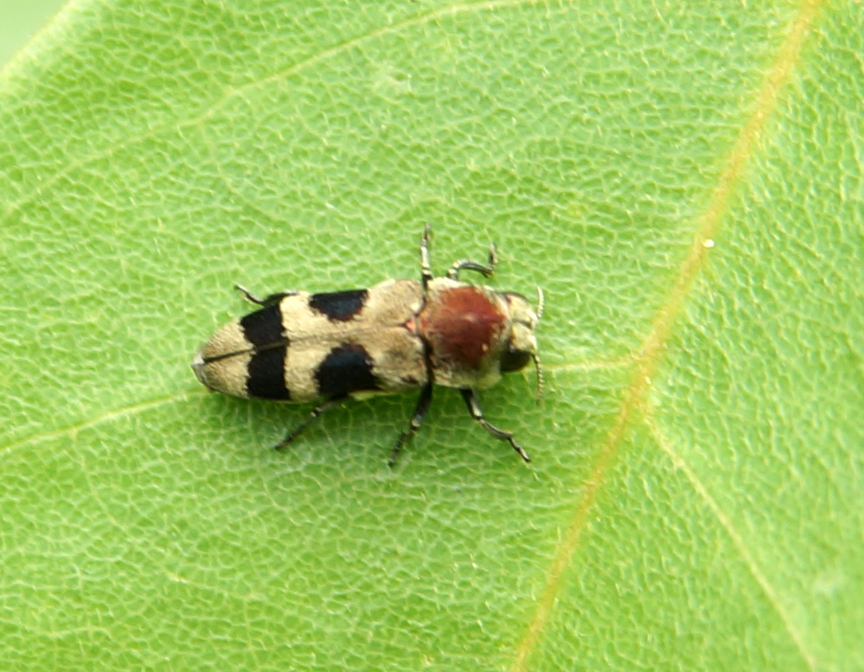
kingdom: Animalia
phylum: Arthropoda
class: Insecta
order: Coleoptera
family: Buprestidae
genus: Tonkinula
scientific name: Tonkinula aurofasciata
